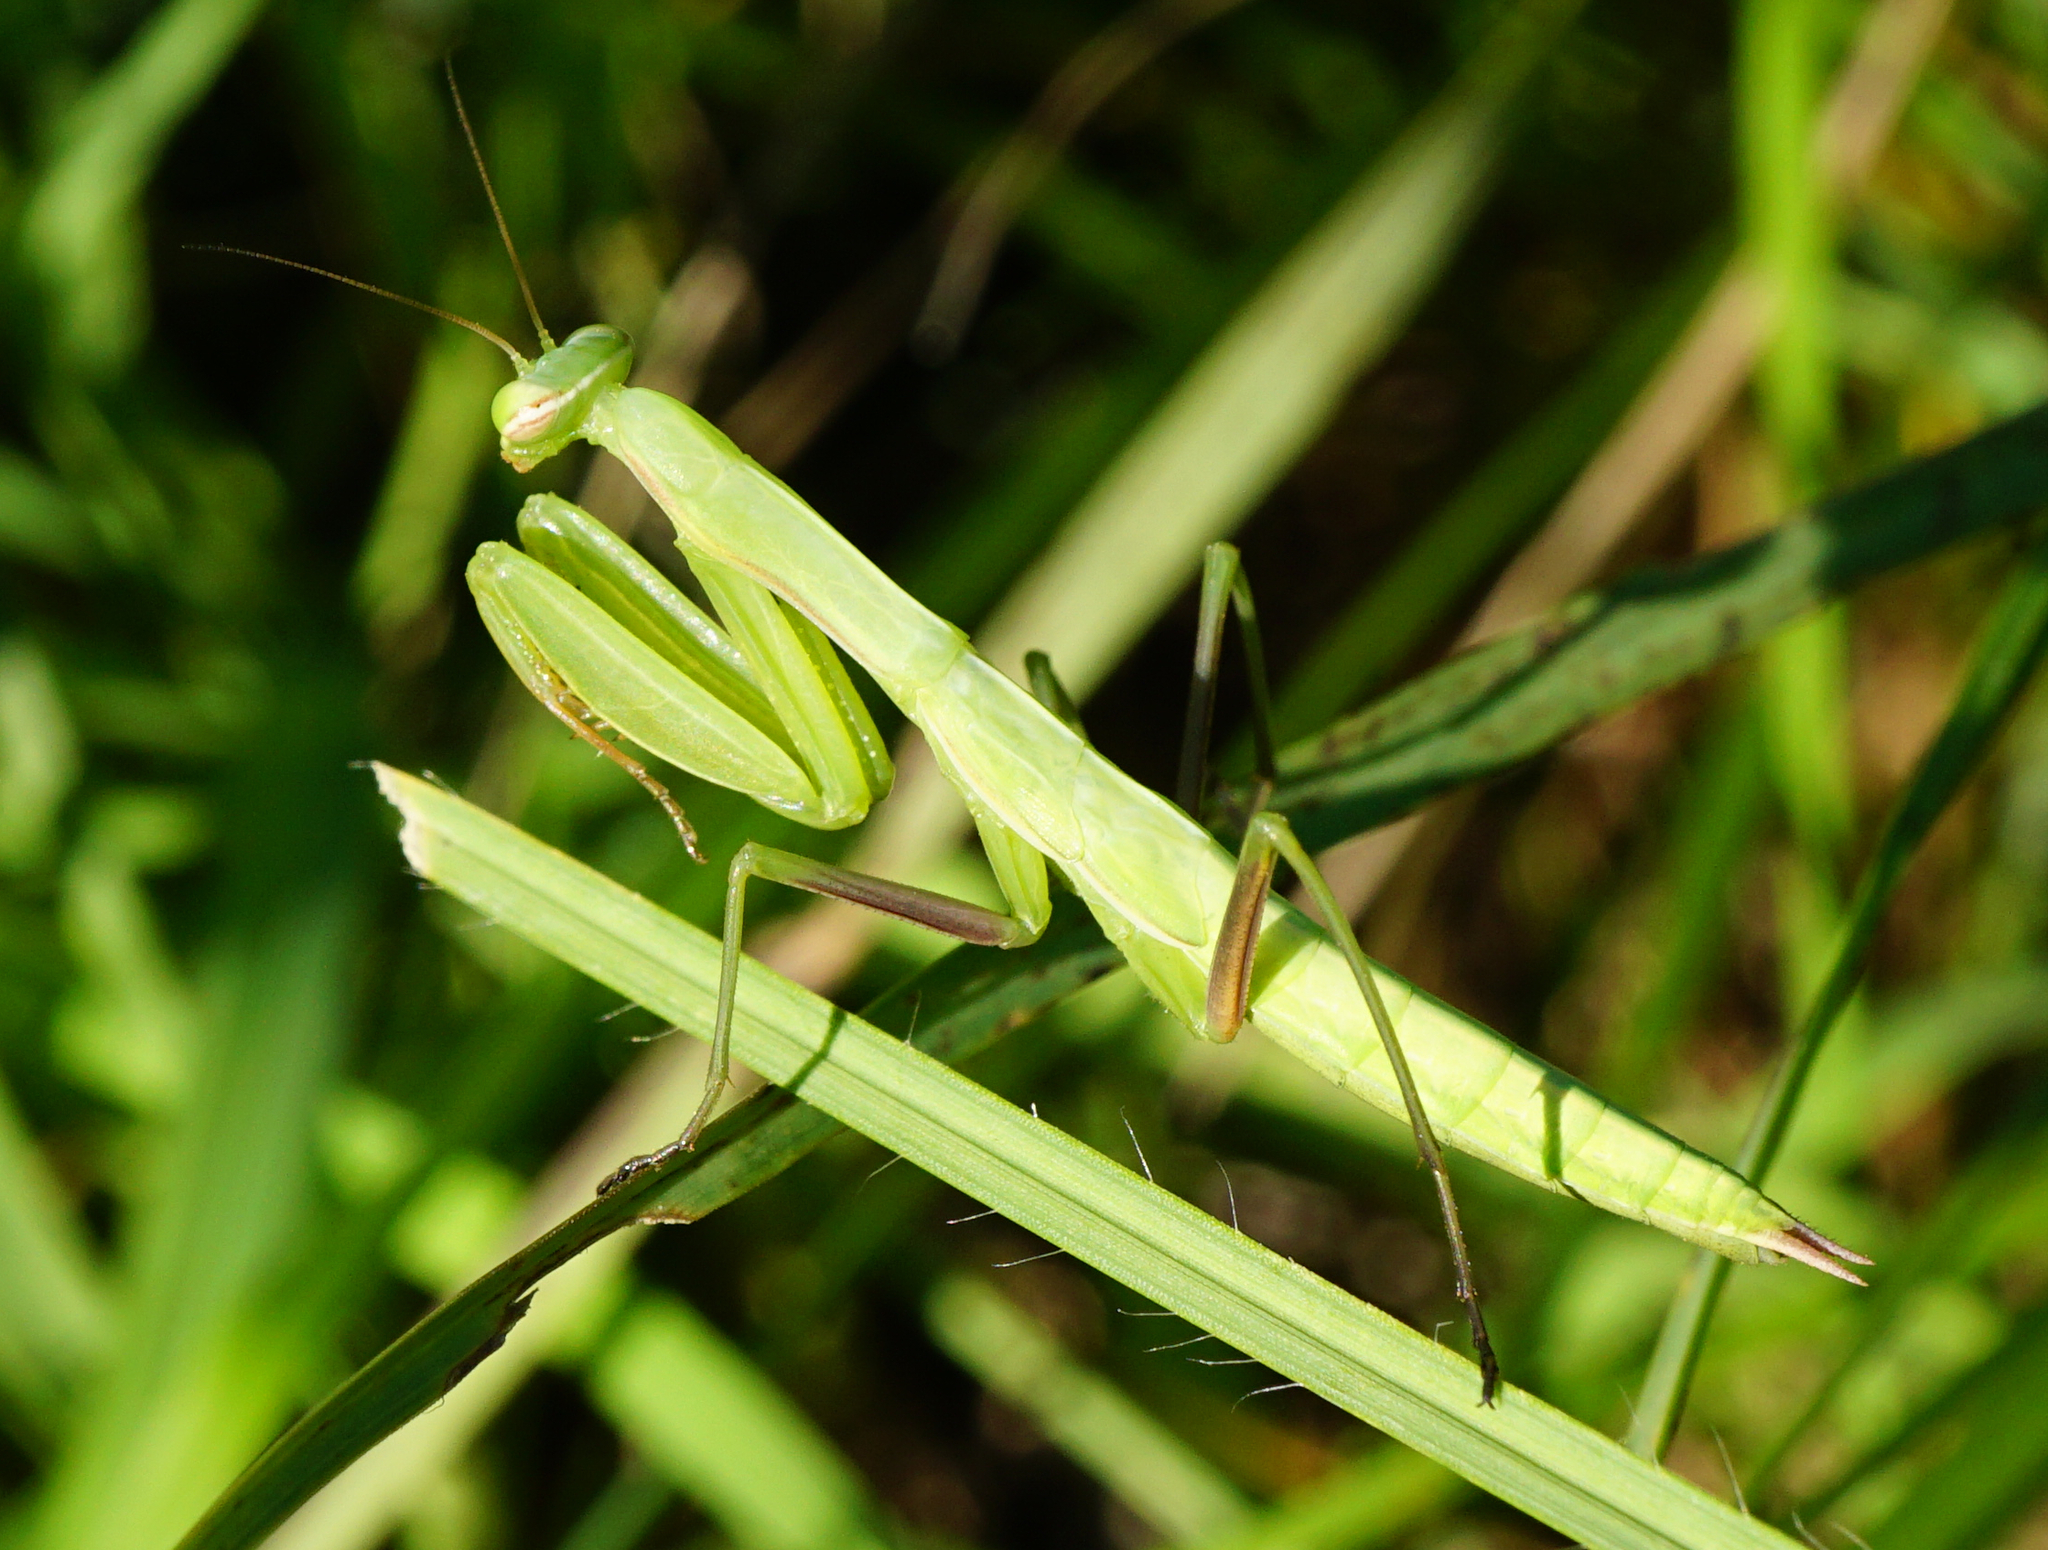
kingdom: Animalia
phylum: Arthropoda
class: Insecta
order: Mantodea
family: Mantidae
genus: Mantis
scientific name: Mantis religiosa
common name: Praying mantis
